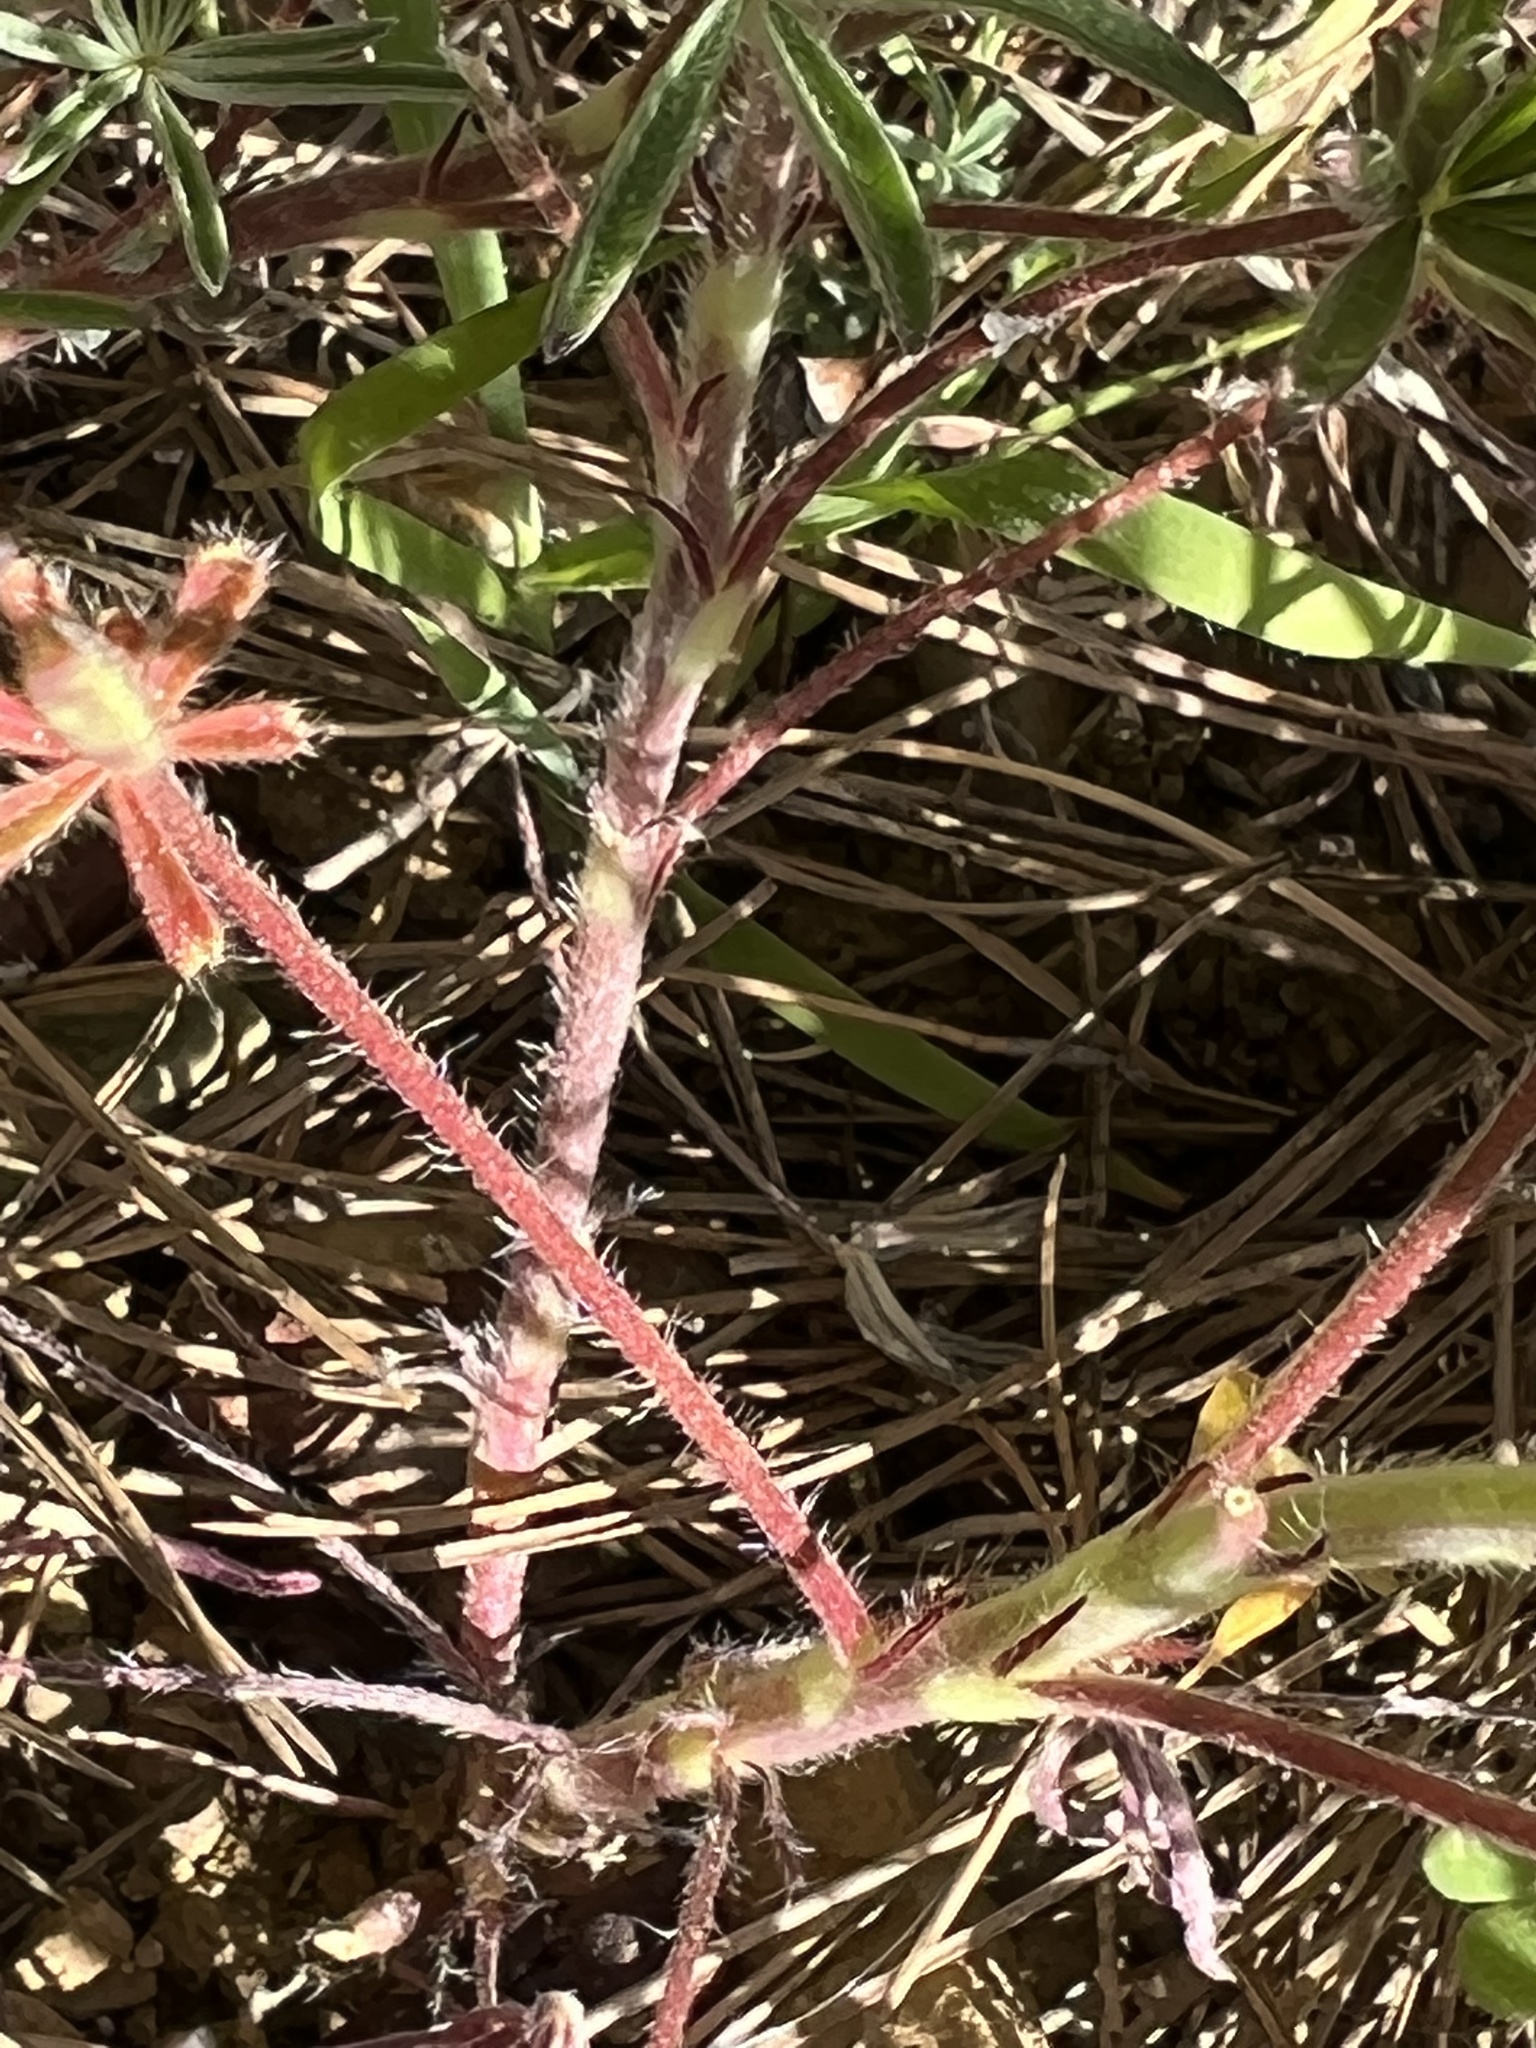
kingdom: Plantae
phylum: Tracheophyta
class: Magnoliopsida
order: Fabales
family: Fabaceae
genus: Lupinus
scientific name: Lupinus bicolor
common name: Miniature lupine
